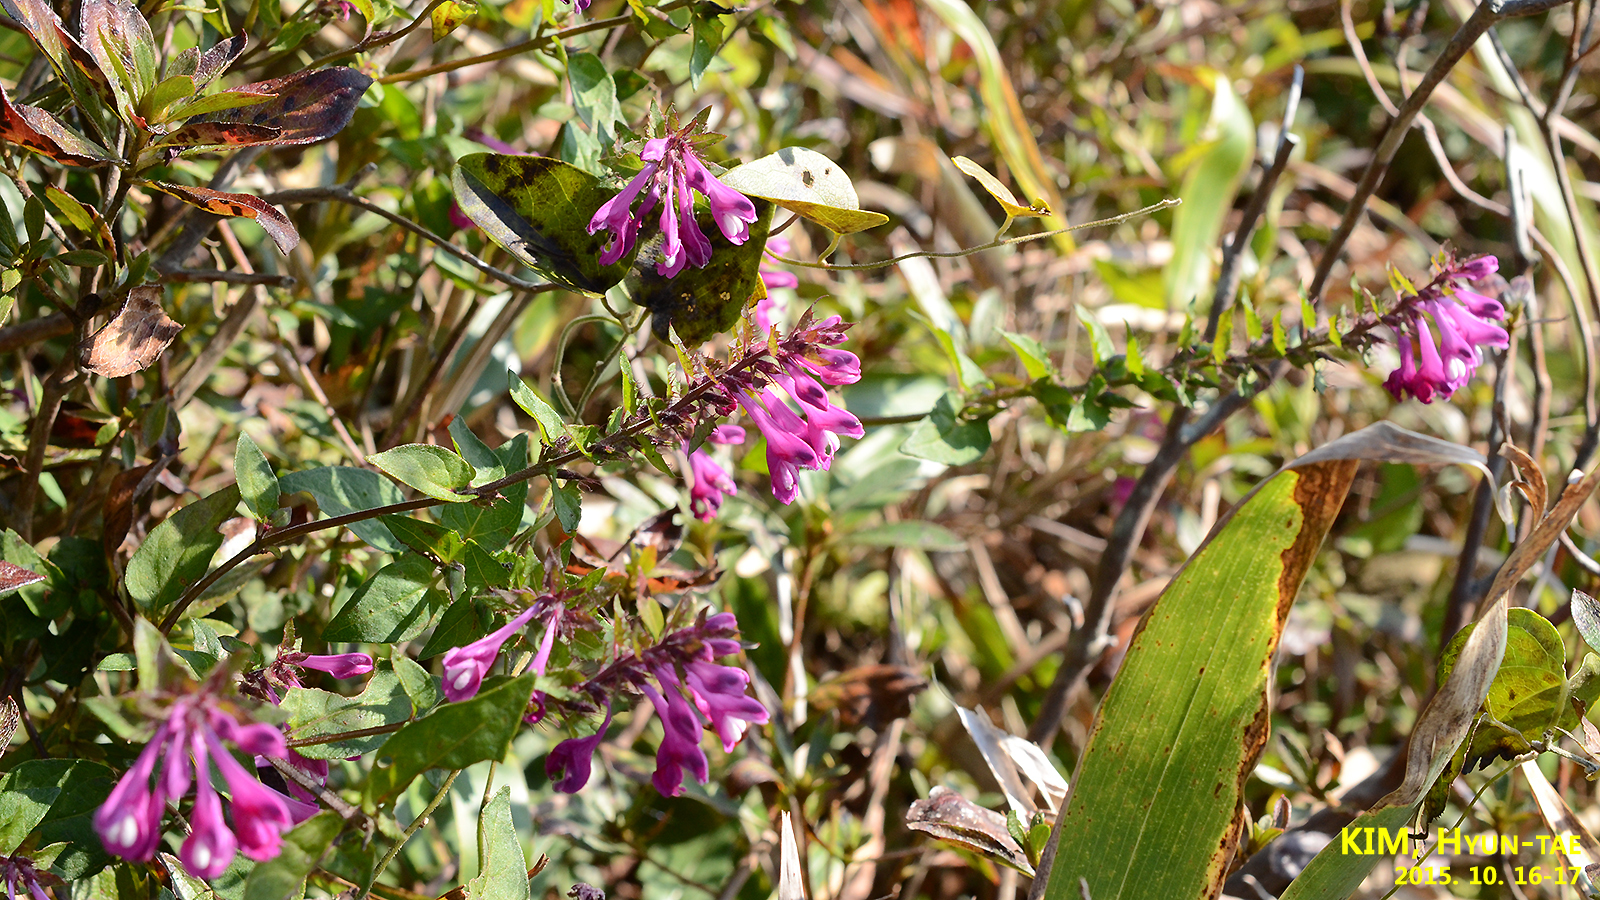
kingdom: Plantae
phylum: Tracheophyta
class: Magnoliopsida
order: Lamiales
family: Orobanchaceae
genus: Melampyrum
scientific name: Melampyrum roseum
